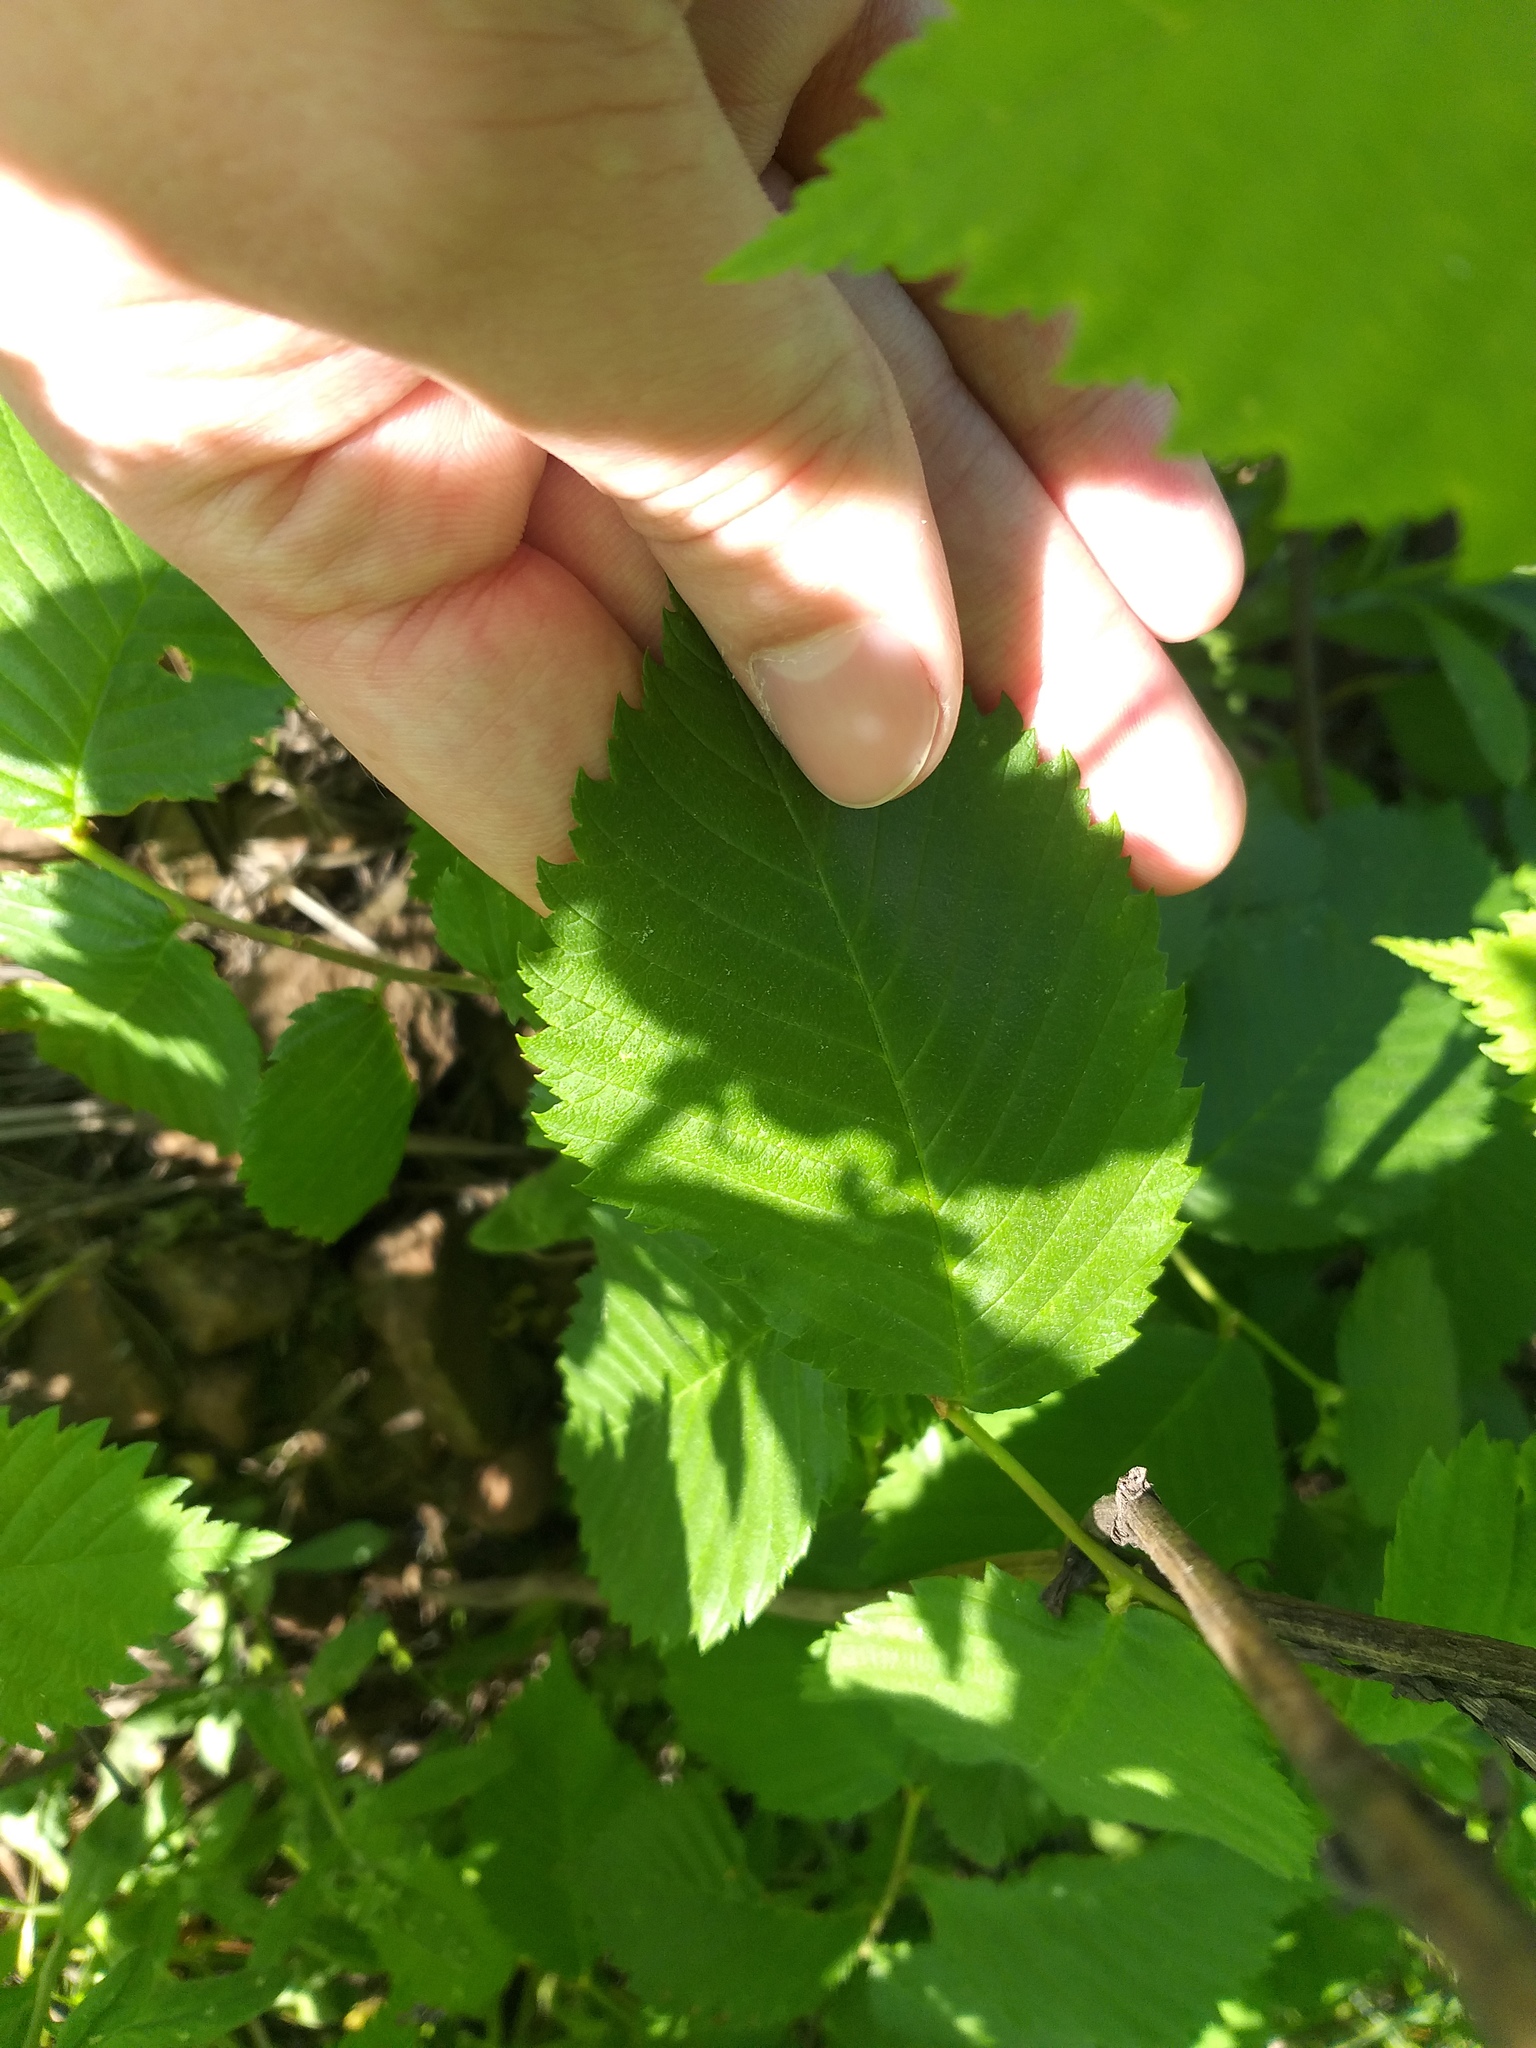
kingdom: Plantae
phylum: Tracheophyta
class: Magnoliopsida
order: Rosales
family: Ulmaceae
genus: Ulmus
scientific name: Ulmus laevis
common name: European white-elm
